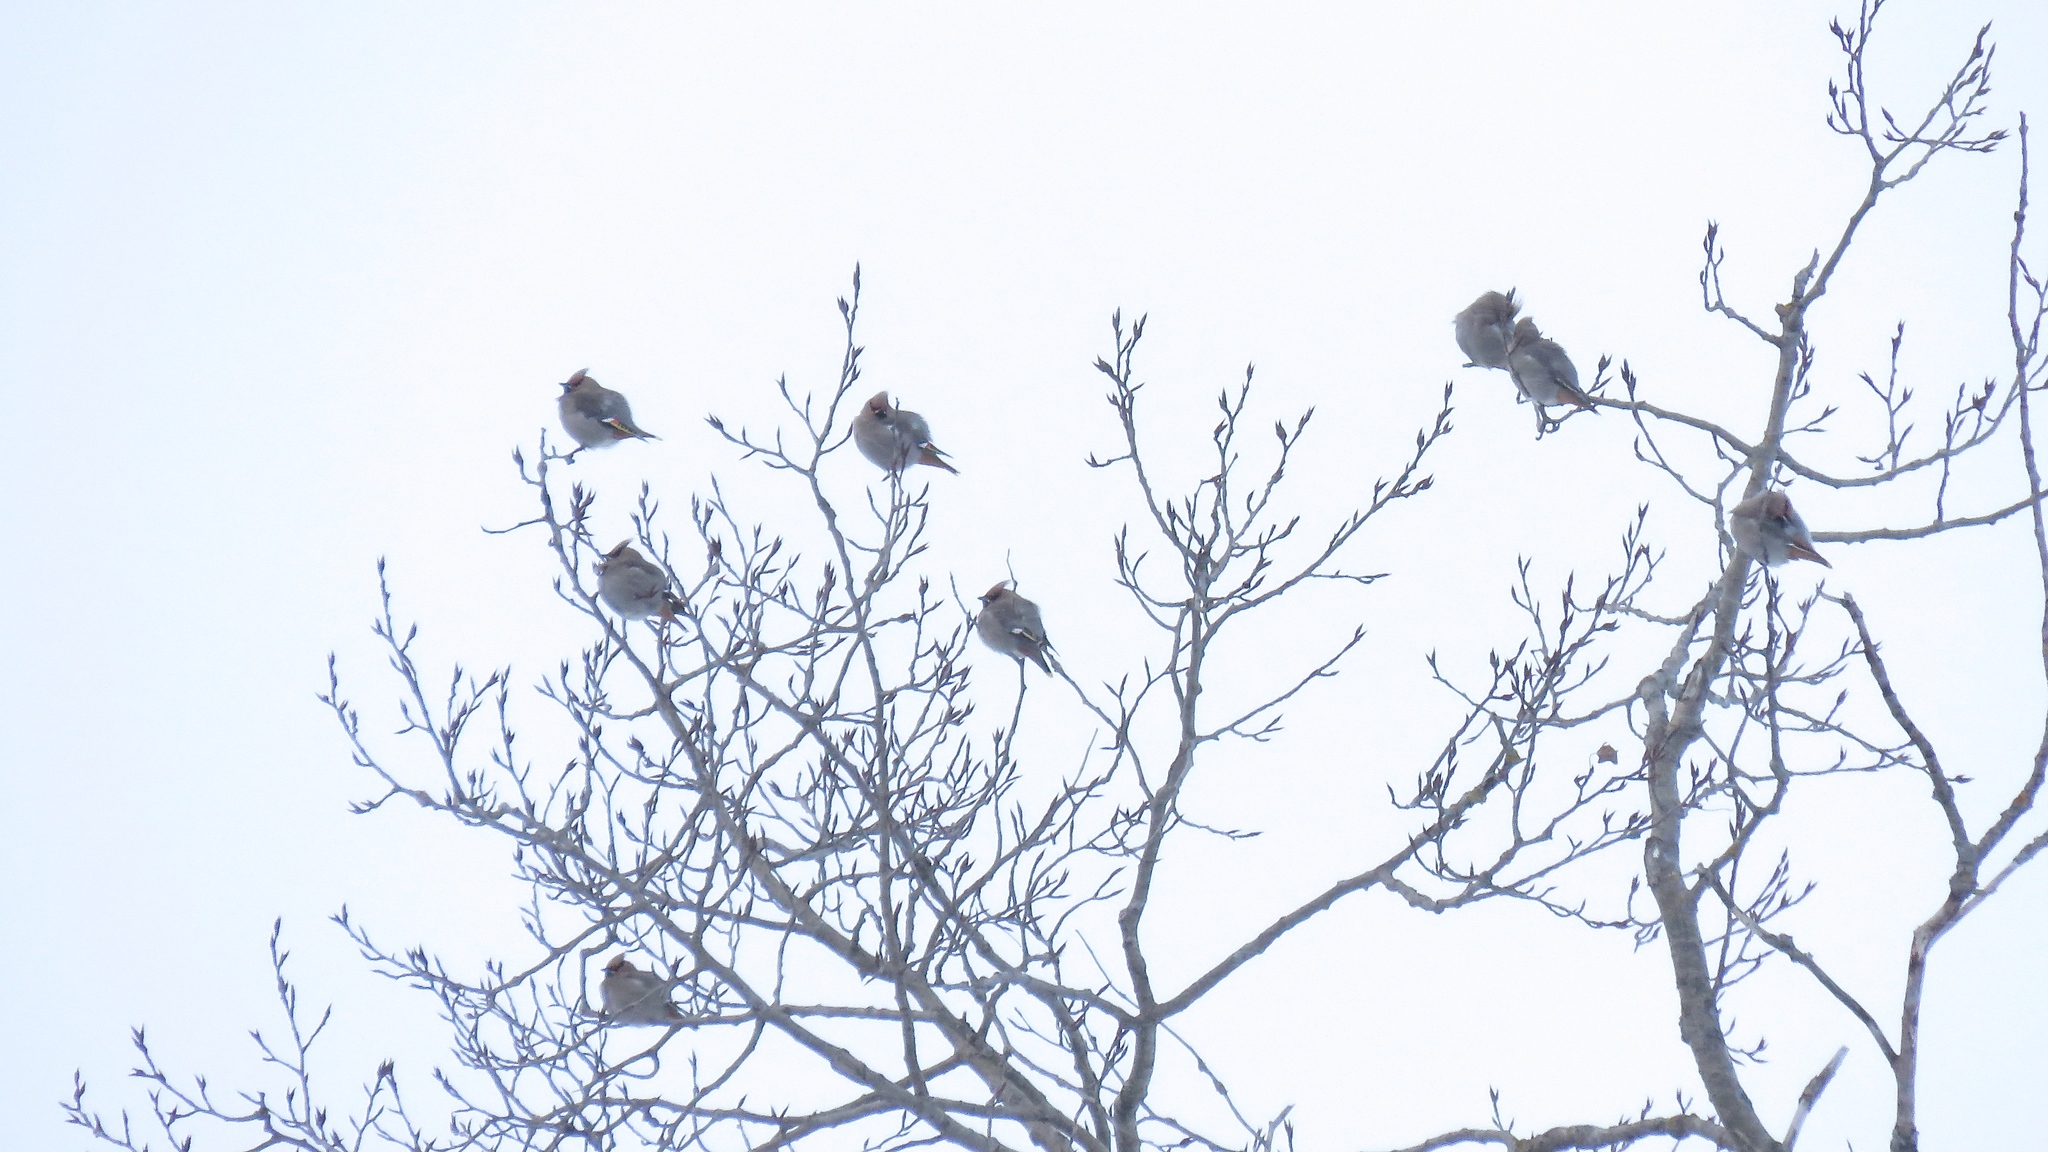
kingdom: Animalia
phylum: Chordata
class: Aves
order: Passeriformes
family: Bombycillidae
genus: Bombycilla
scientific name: Bombycilla garrulus
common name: Bohemian waxwing
